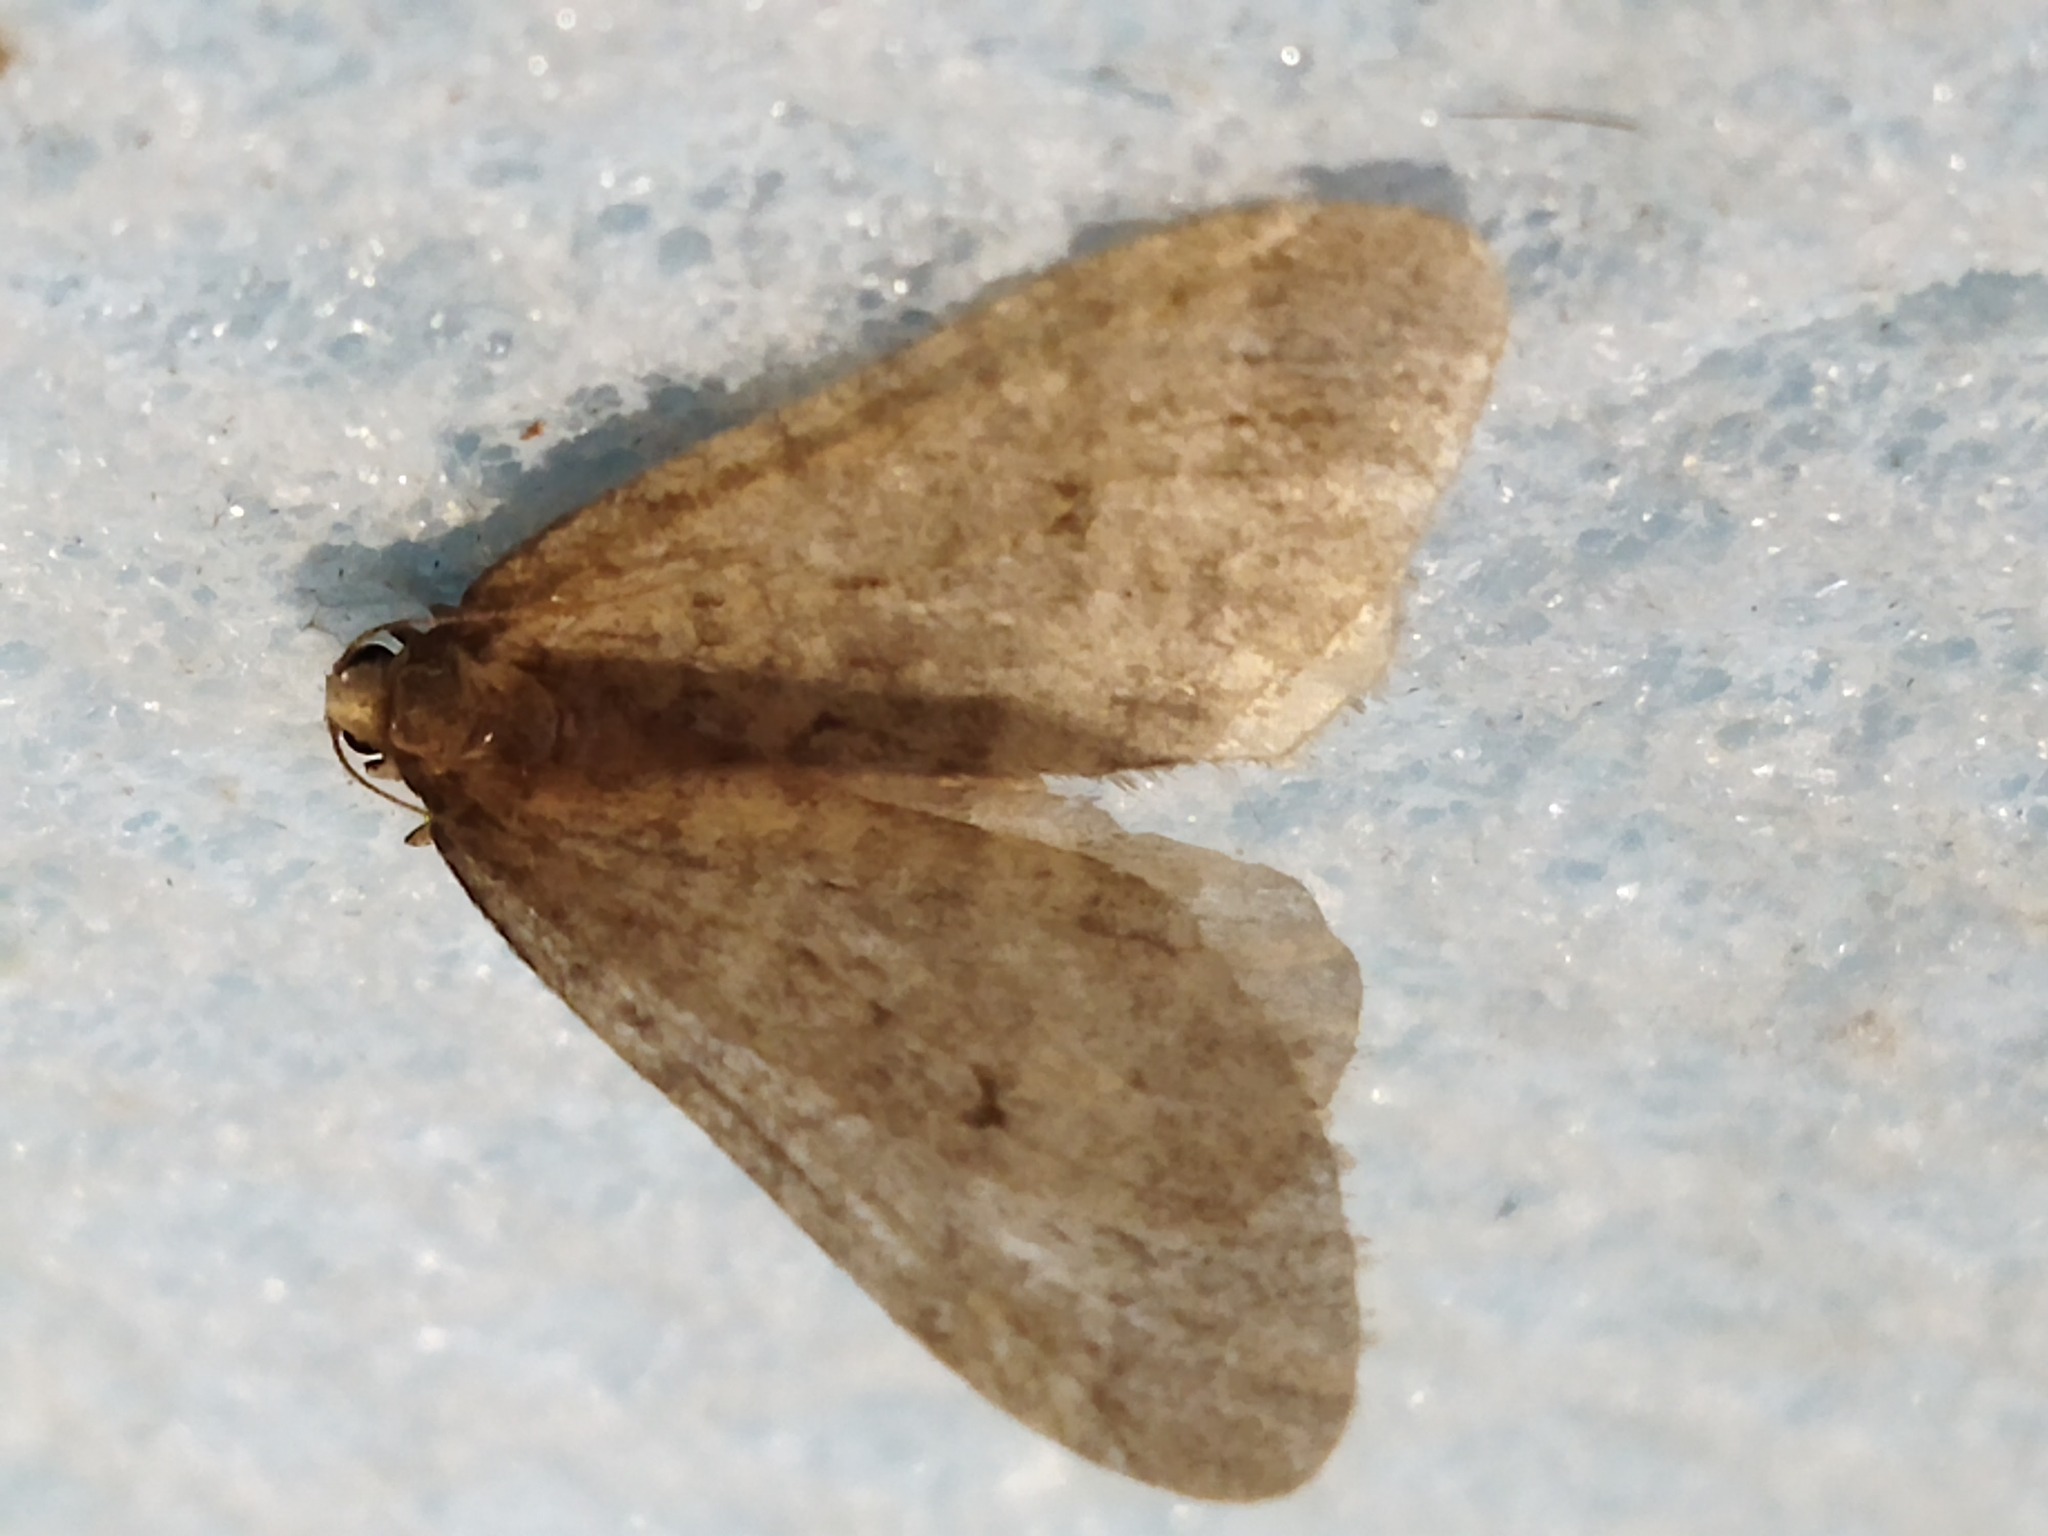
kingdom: Animalia
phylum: Arthropoda
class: Insecta
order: Lepidoptera
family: Geometridae
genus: Operophtera
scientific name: Operophtera brumata
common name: Winter moth
